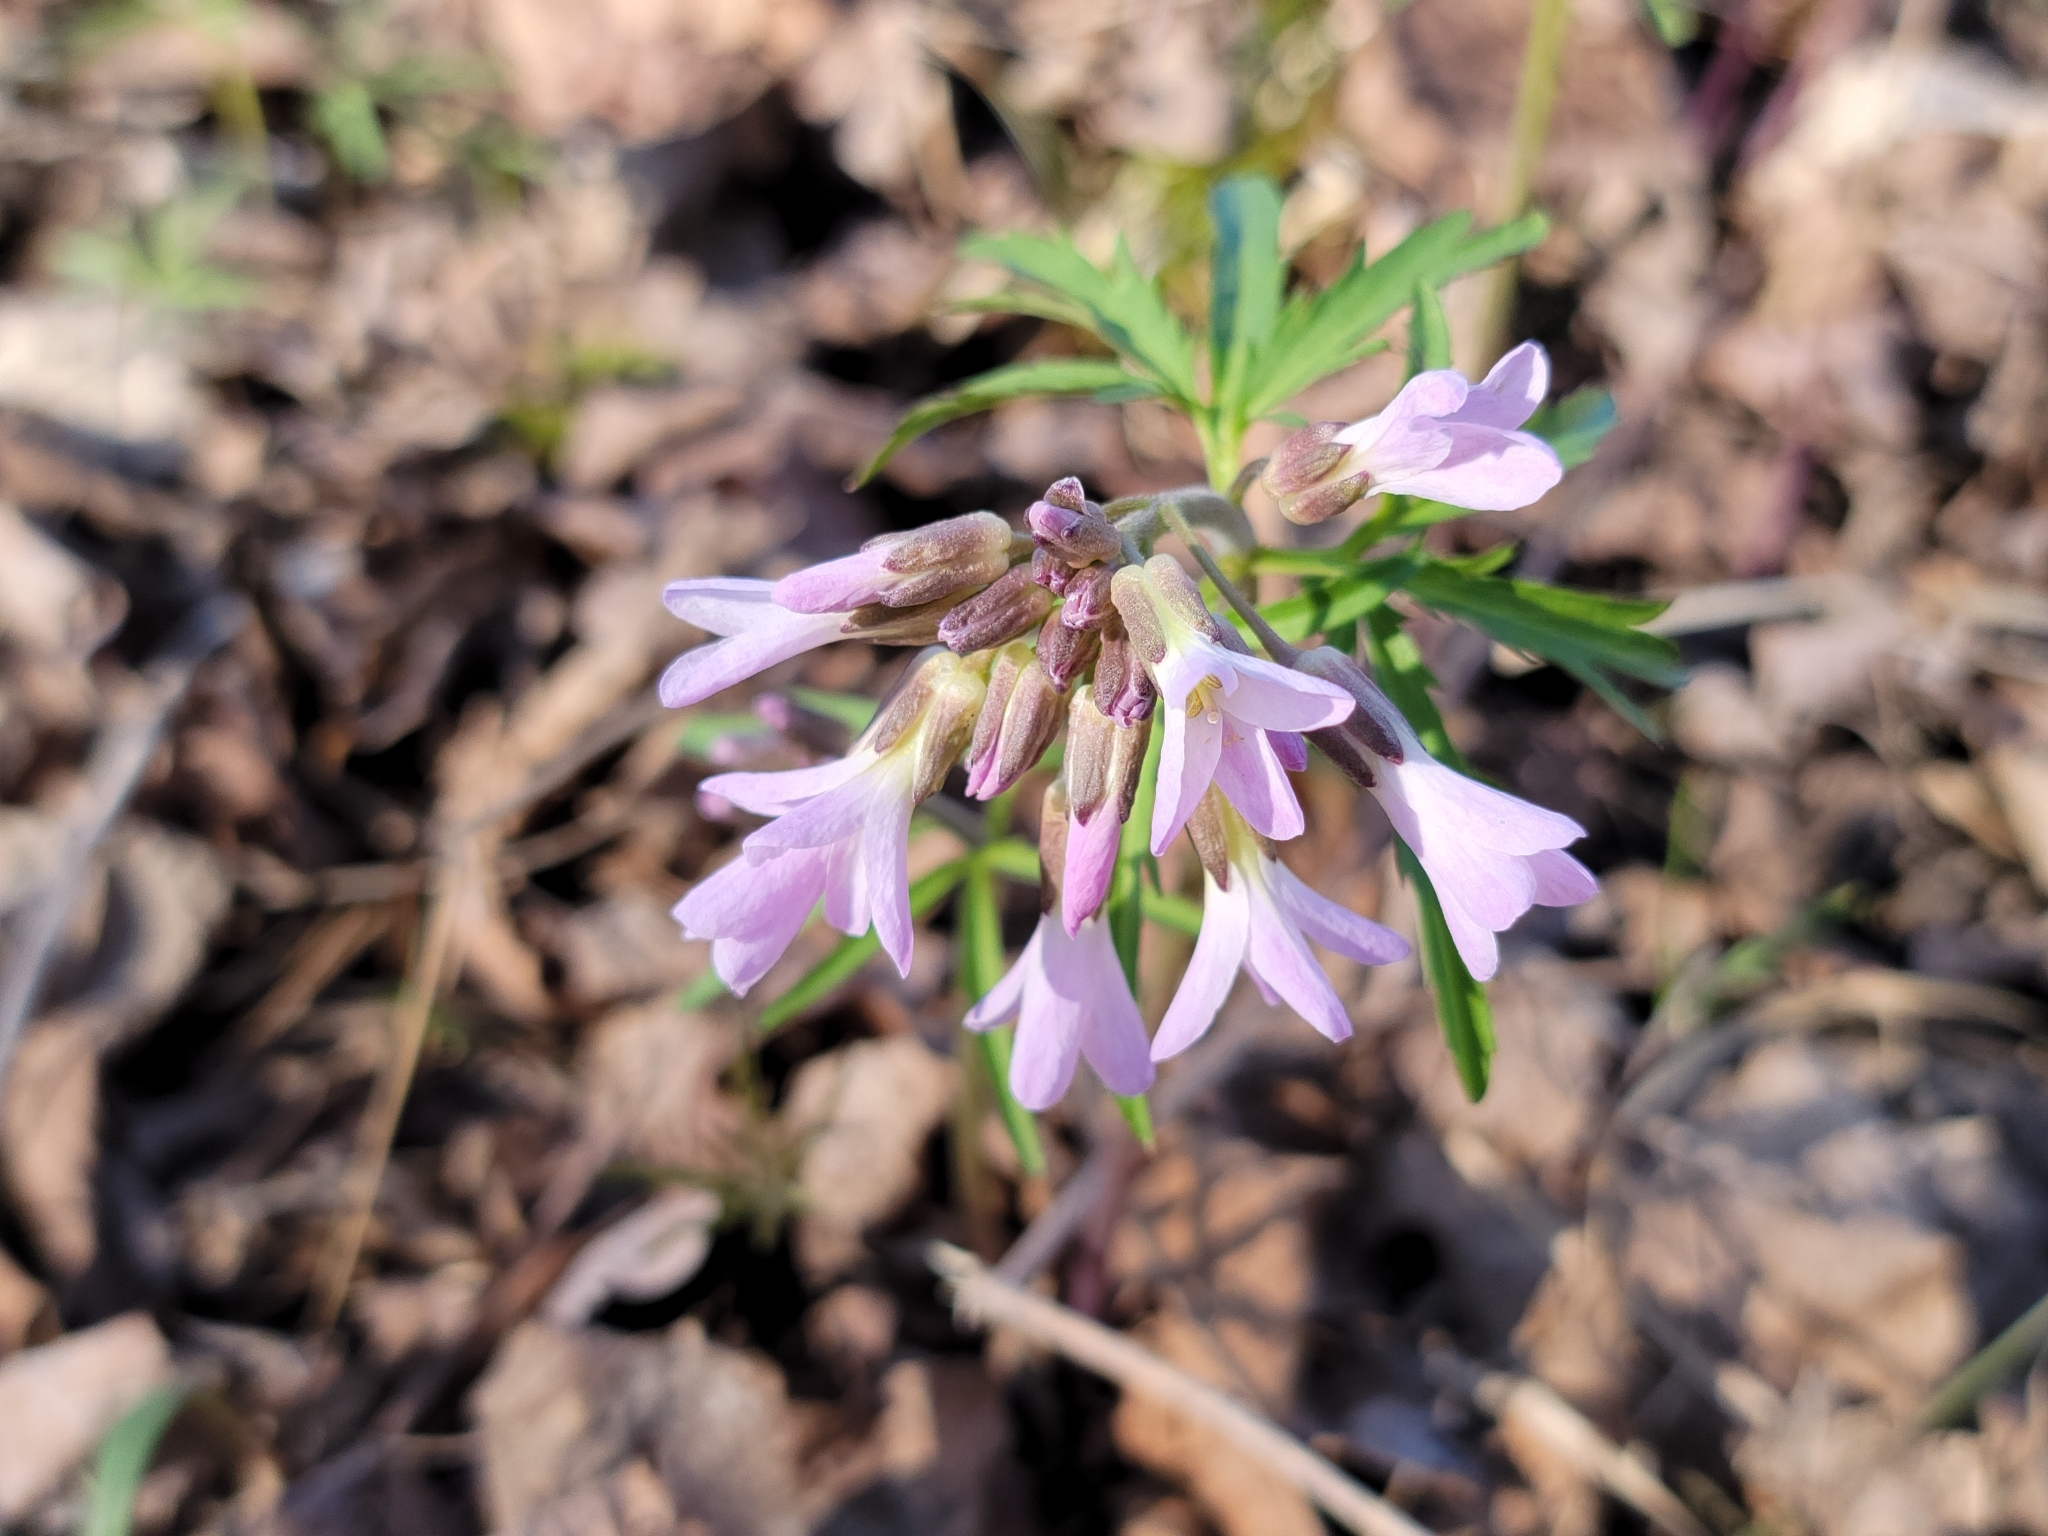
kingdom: Plantae
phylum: Tracheophyta
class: Magnoliopsida
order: Brassicales
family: Brassicaceae
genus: Cardamine
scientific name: Cardamine concatenata
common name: Cut-leaf toothcup
